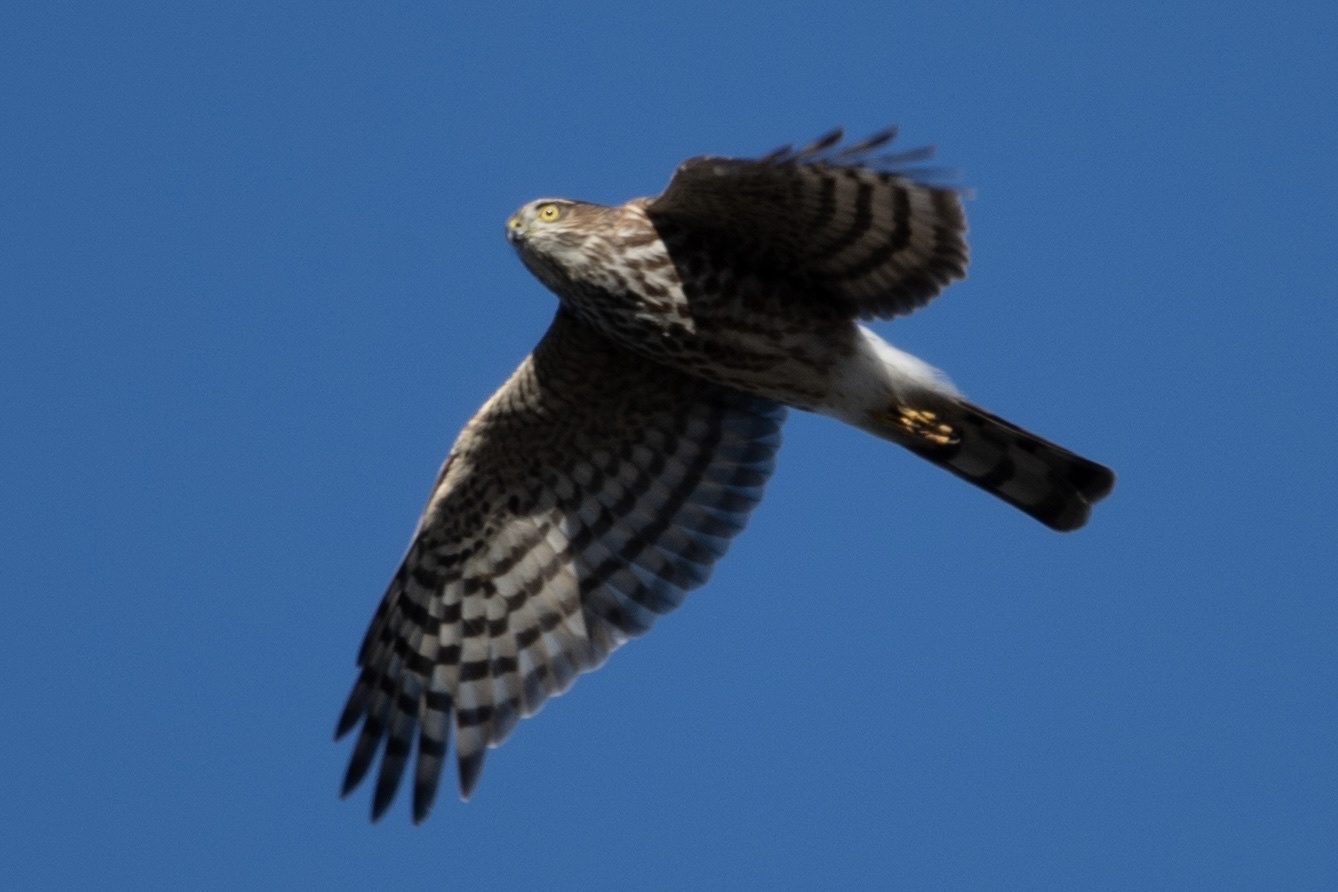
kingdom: Animalia
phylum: Chordata
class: Aves
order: Accipitriformes
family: Accipitridae
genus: Accipiter
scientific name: Accipiter striatus
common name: Sharp-shinned hawk
